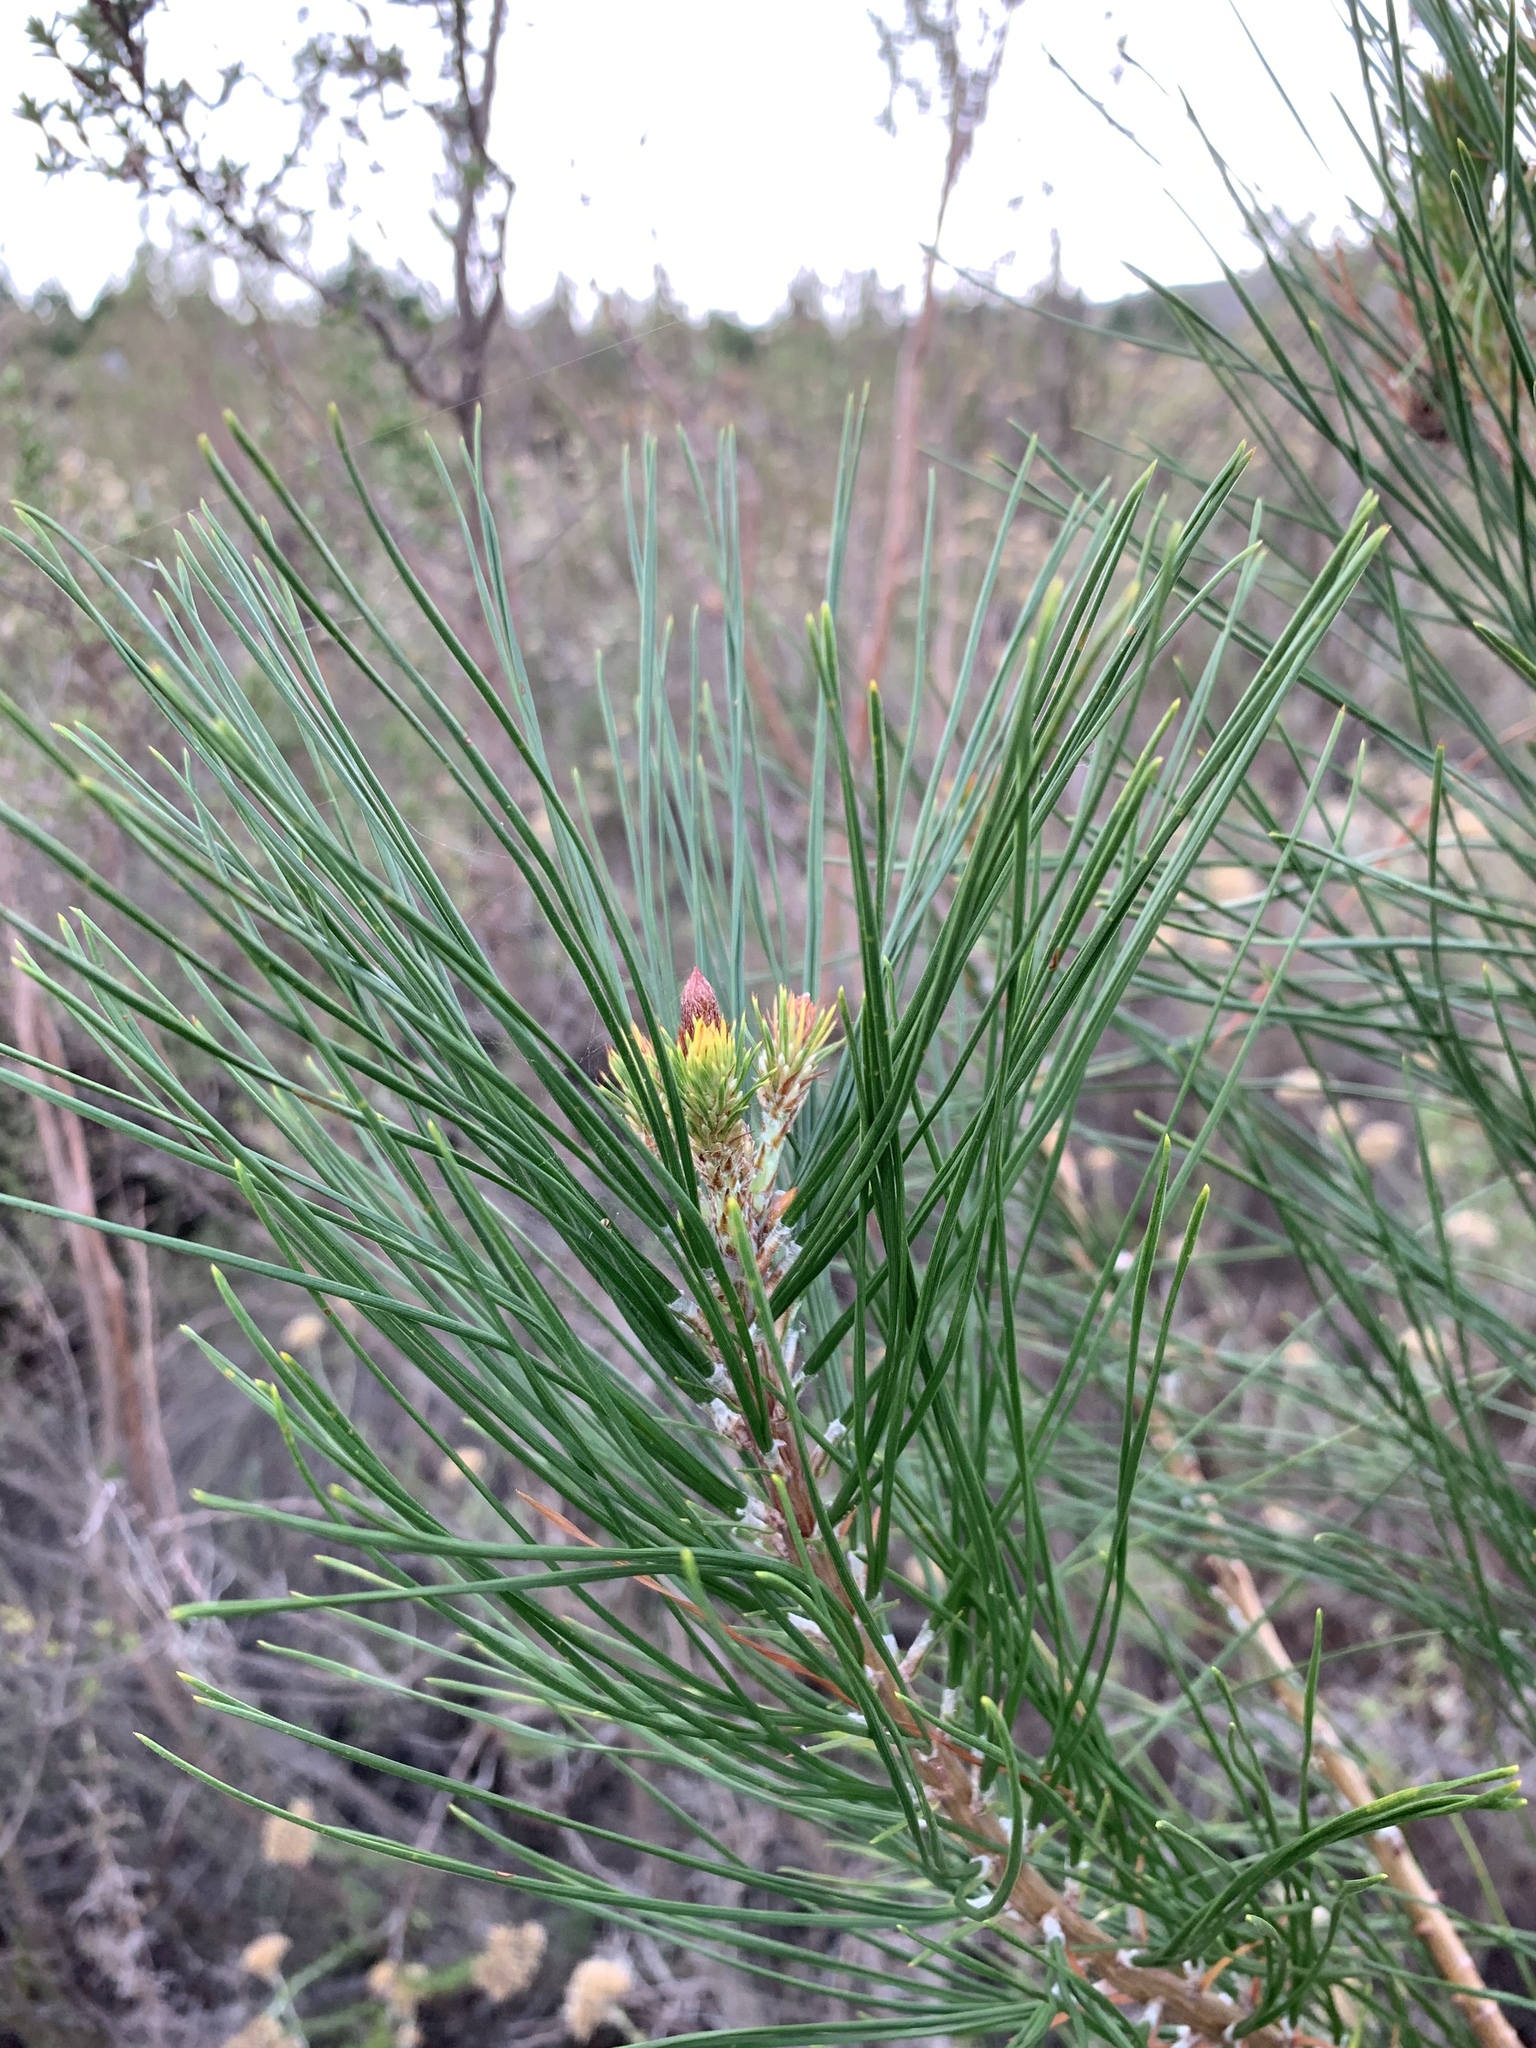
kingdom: Plantae
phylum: Tracheophyta
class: Pinopsida
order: Pinales
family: Pinaceae
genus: Pinus
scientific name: Pinus radiata
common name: Monterey pine
